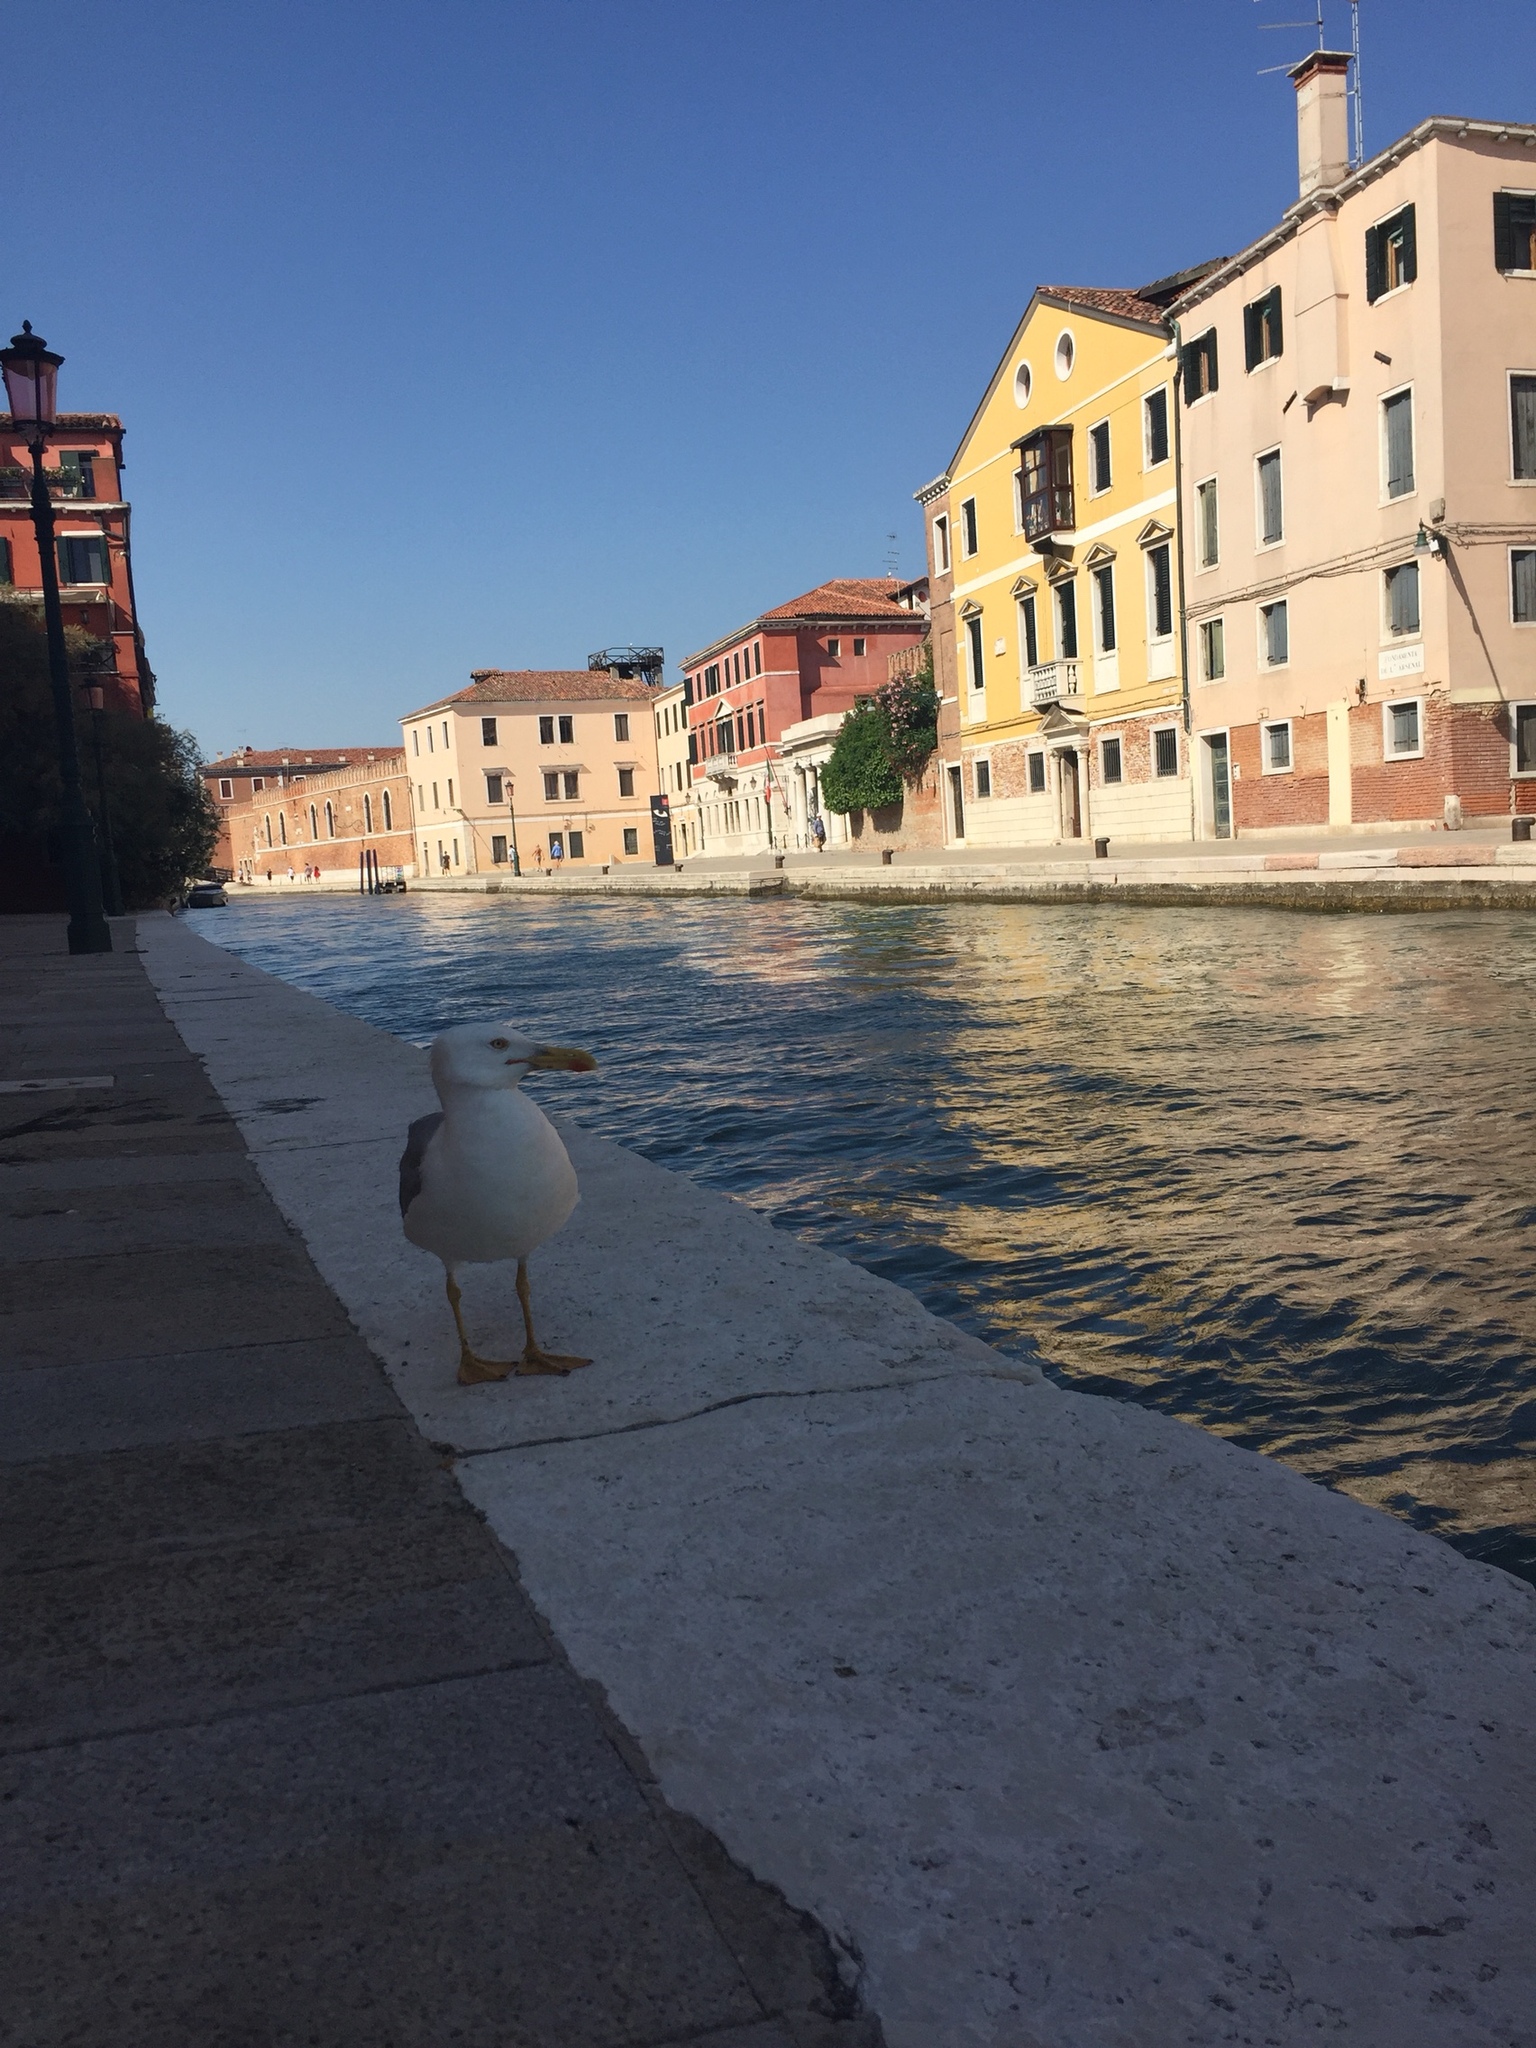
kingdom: Animalia
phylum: Chordata
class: Aves
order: Charadriiformes
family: Laridae
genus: Larus
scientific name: Larus michahellis
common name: Yellow-legged gull
